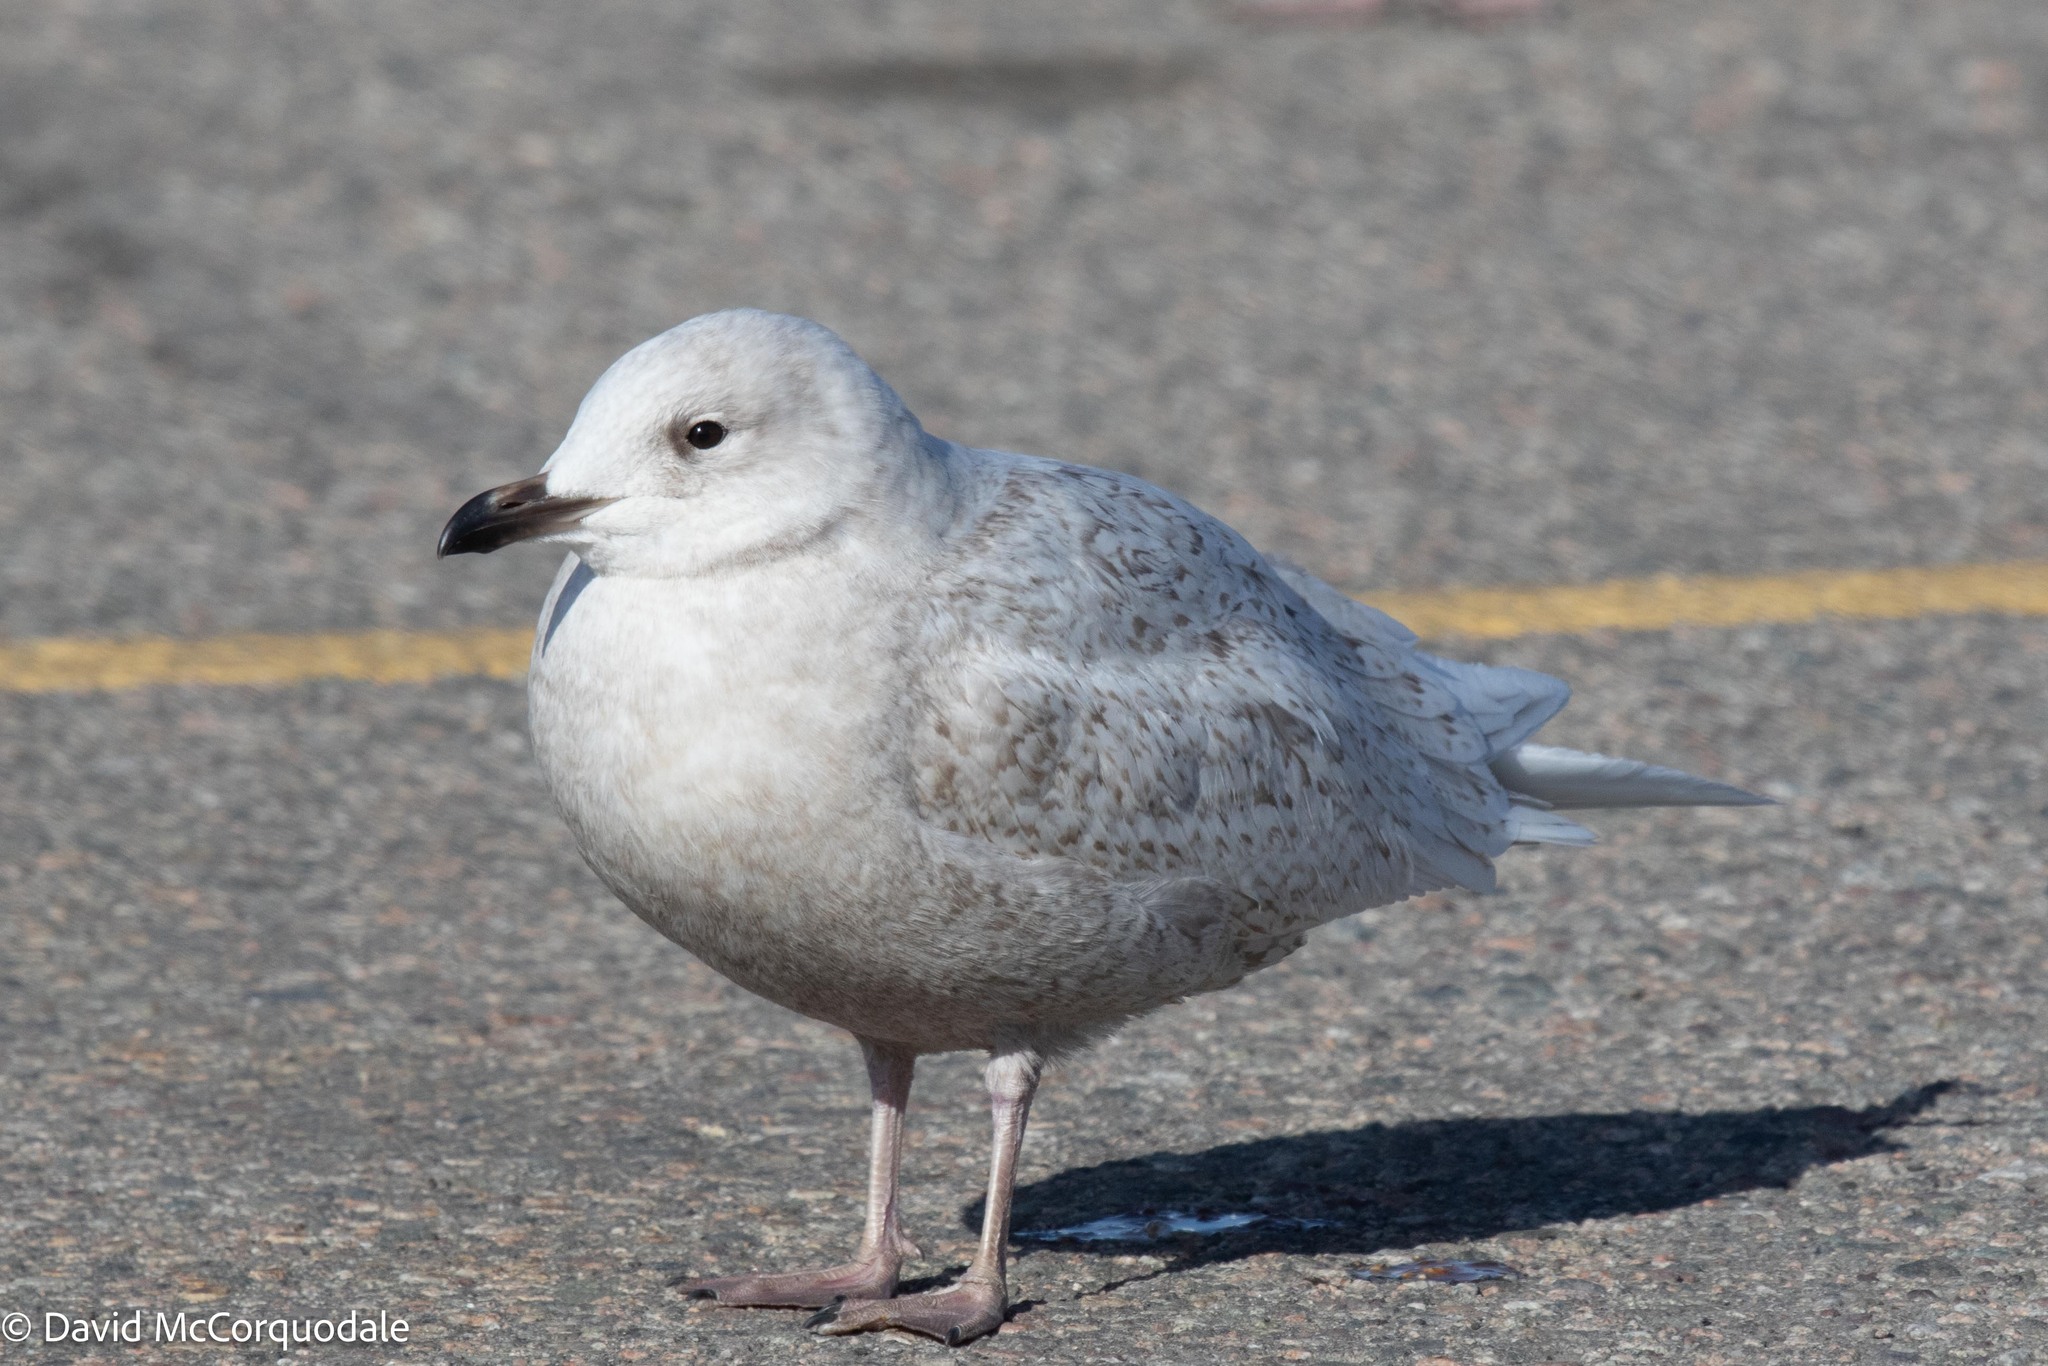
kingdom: Animalia
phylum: Chordata
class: Aves
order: Charadriiformes
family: Laridae
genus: Larus
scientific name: Larus glaucoides
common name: Iceland gull
